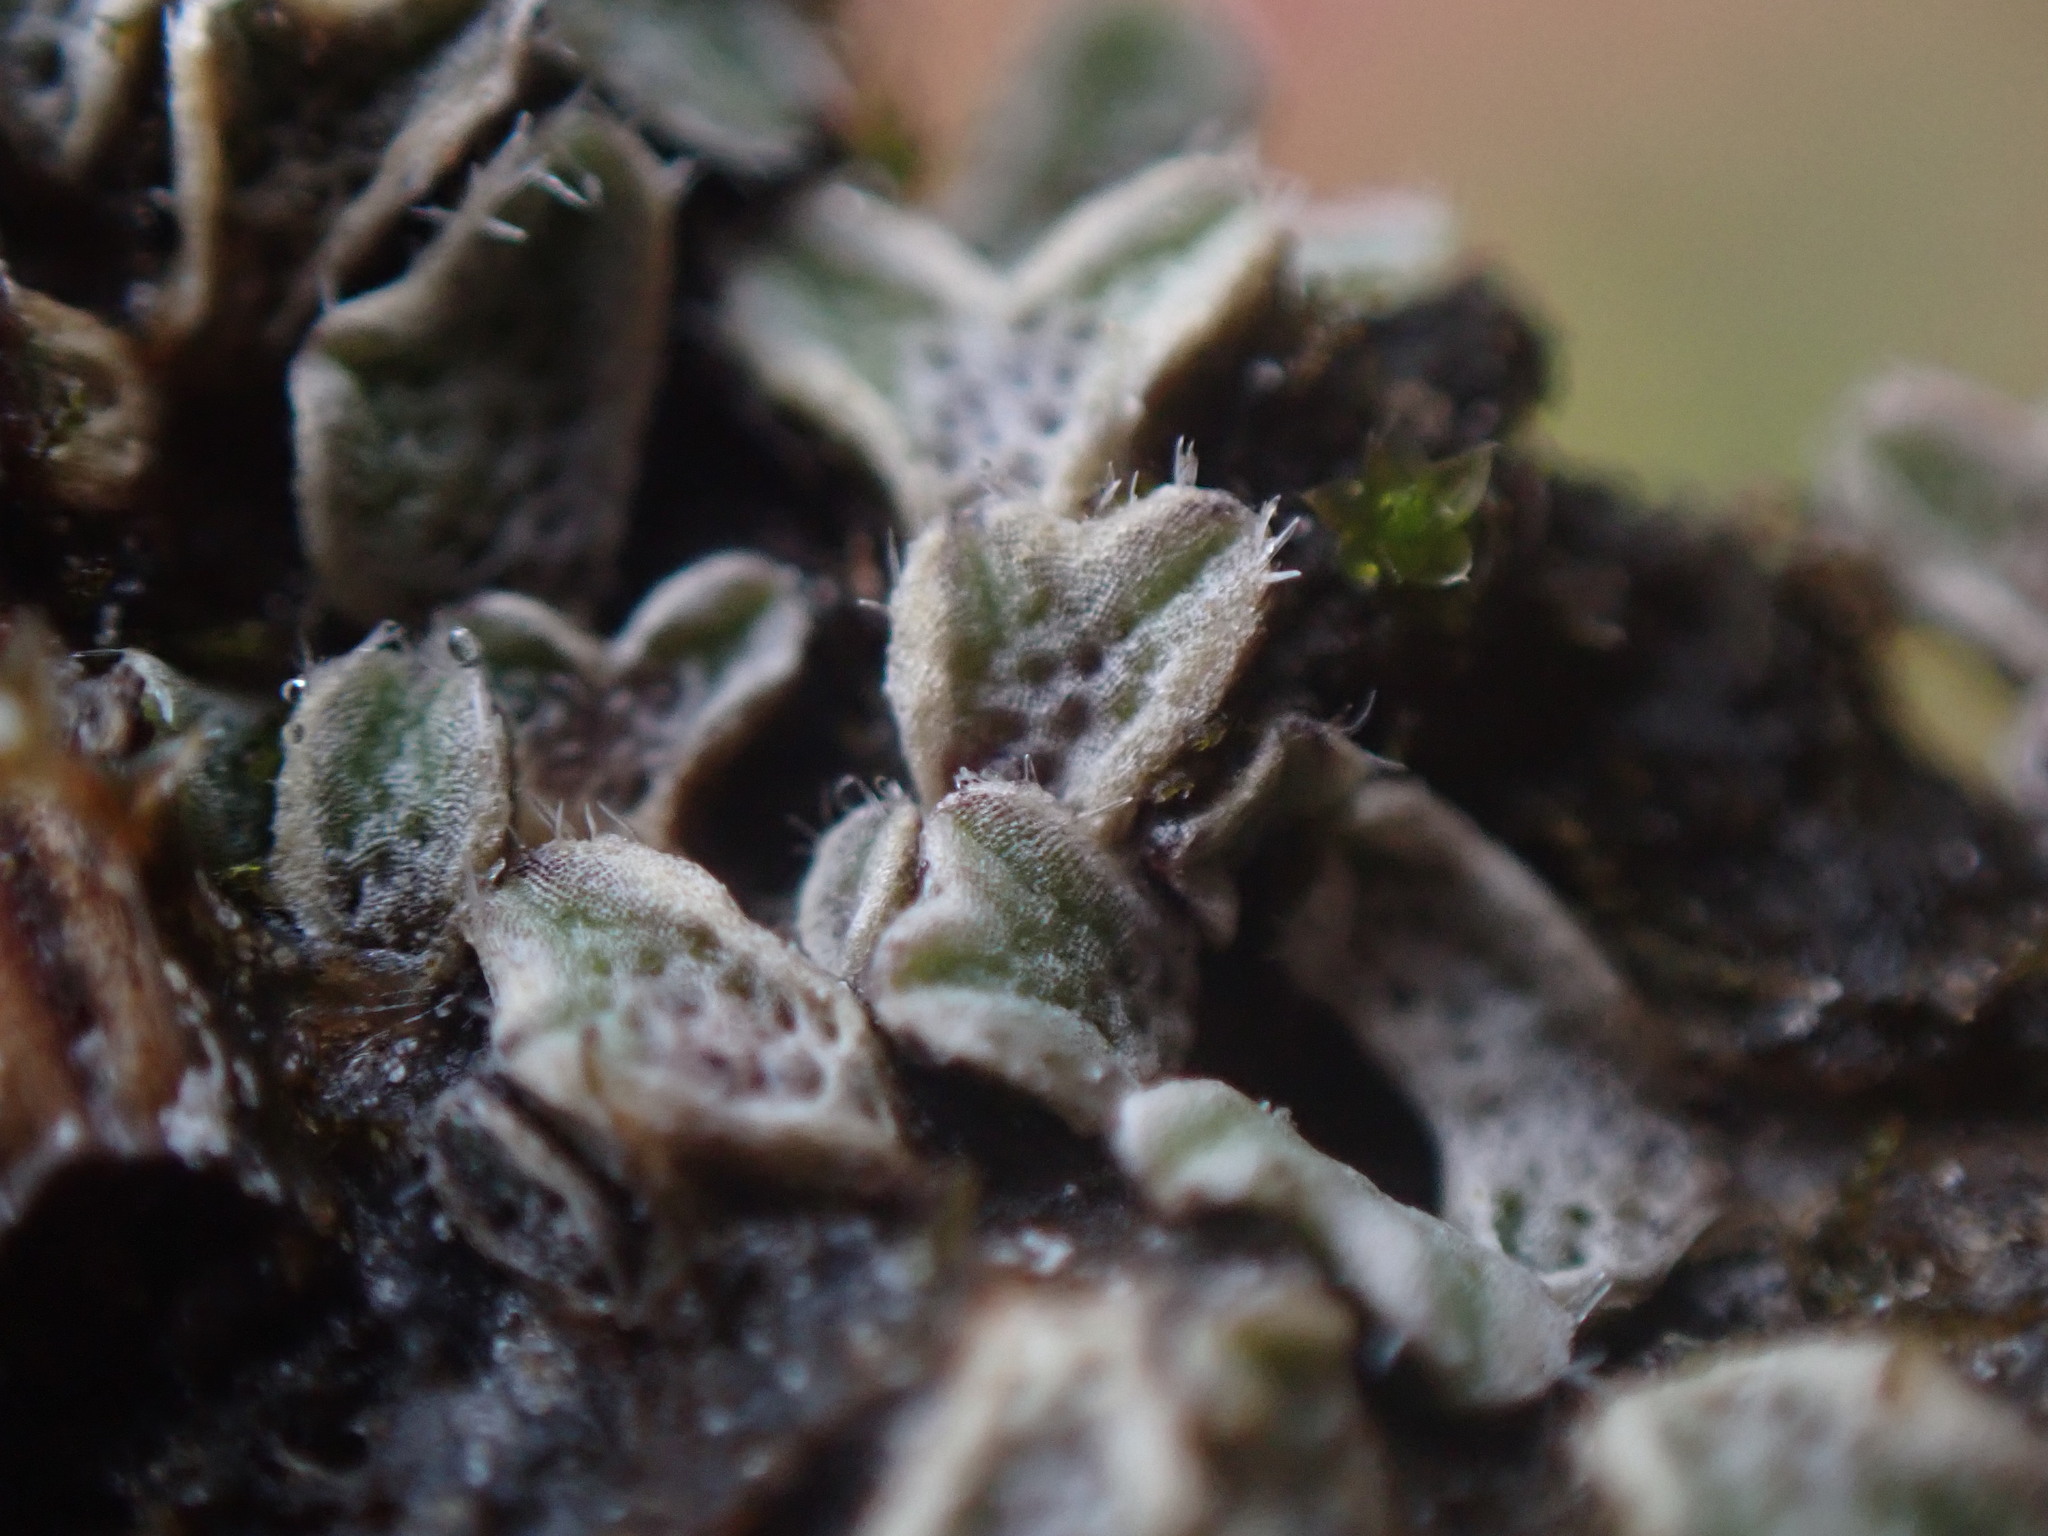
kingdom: Plantae
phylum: Marchantiophyta
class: Marchantiopsida
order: Marchantiales
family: Ricciaceae
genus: Riccia
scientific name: Riccia trichocarpa
